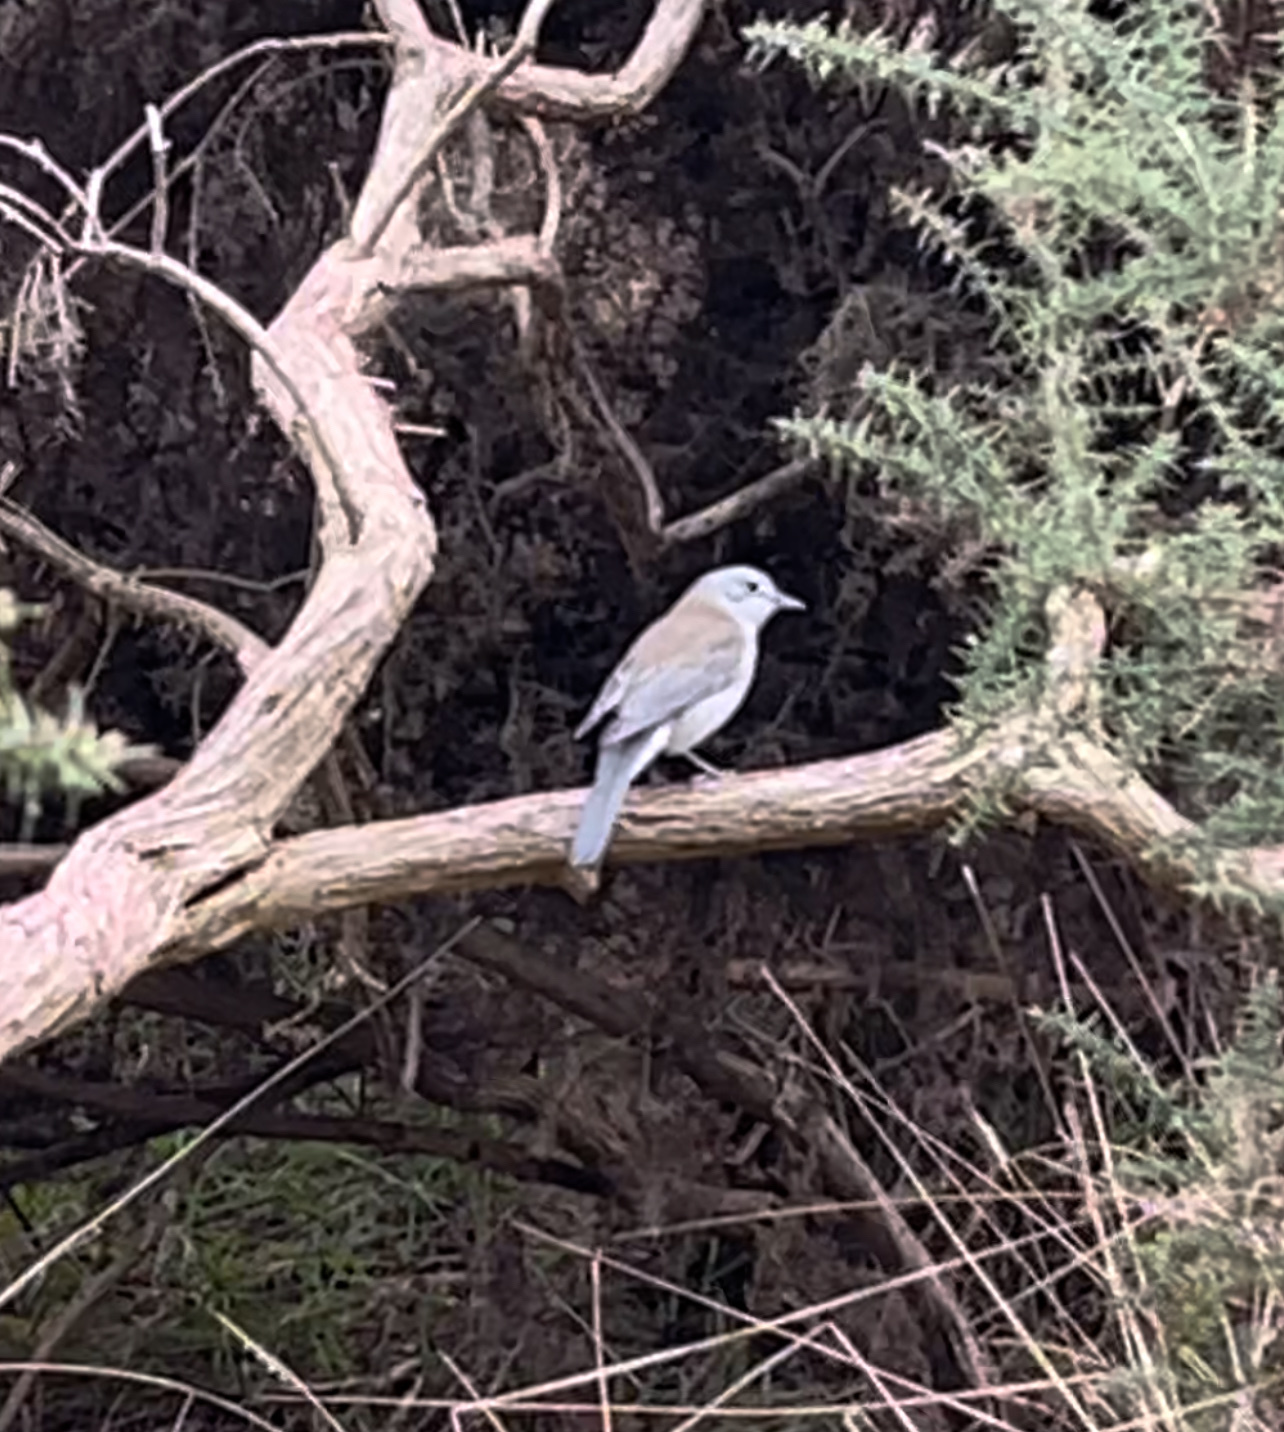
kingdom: Animalia
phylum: Chordata
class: Aves
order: Passeriformes
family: Pachycephalidae
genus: Colluricincla
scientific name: Colluricincla harmonica
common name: Grey shrikethrush
